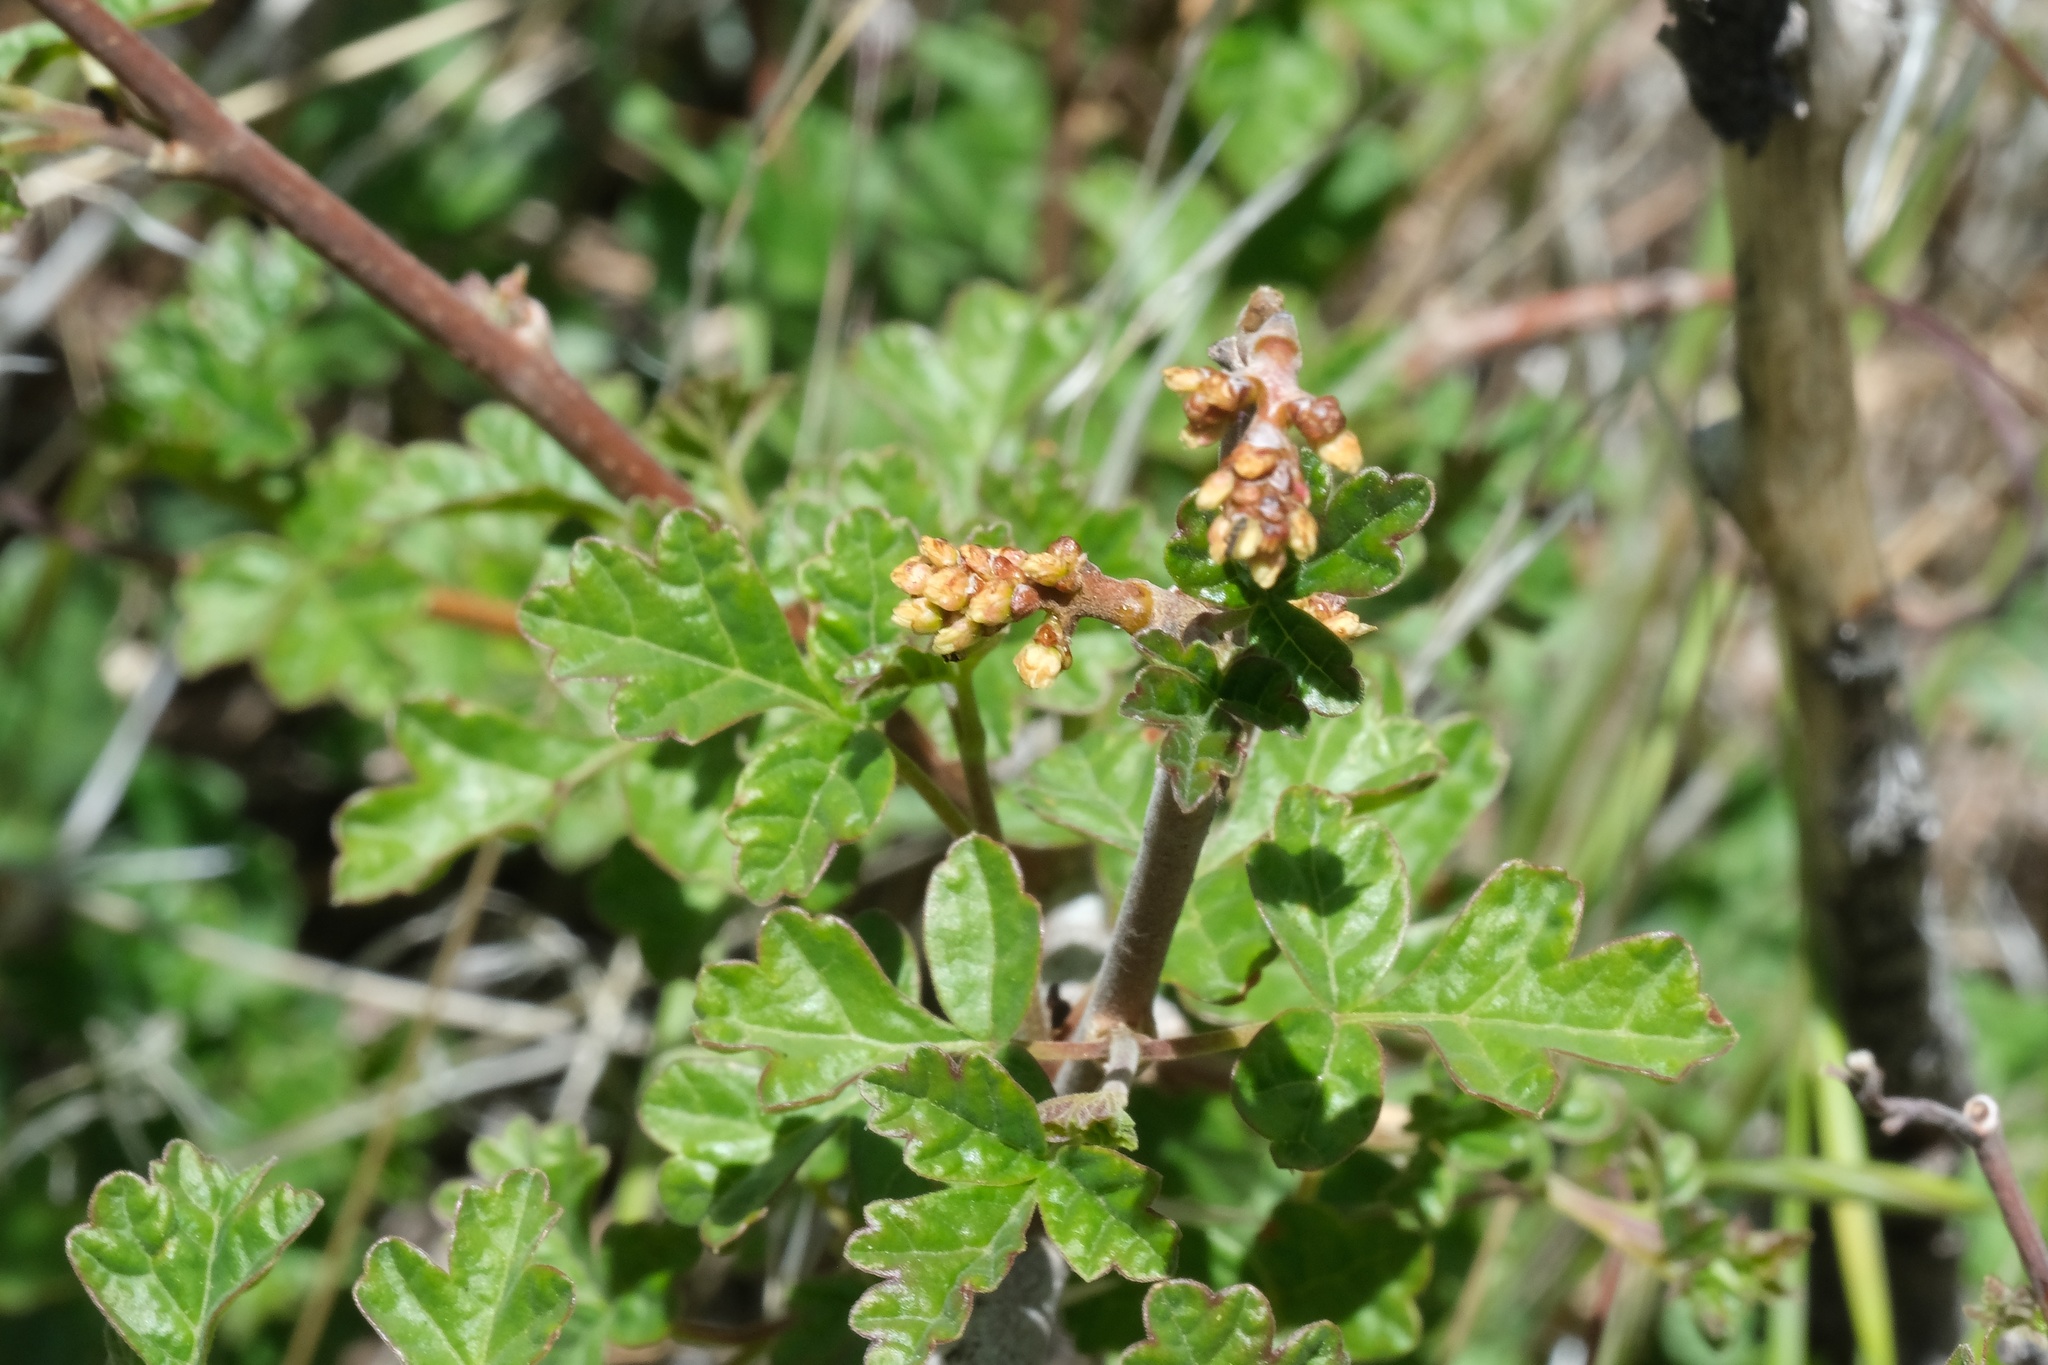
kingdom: Plantae
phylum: Tracheophyta
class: Magnoliopsida
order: Sapindales
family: Anacardiaceae
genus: Rhus
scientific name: Rhus aromatica
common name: Aromatic sumac
